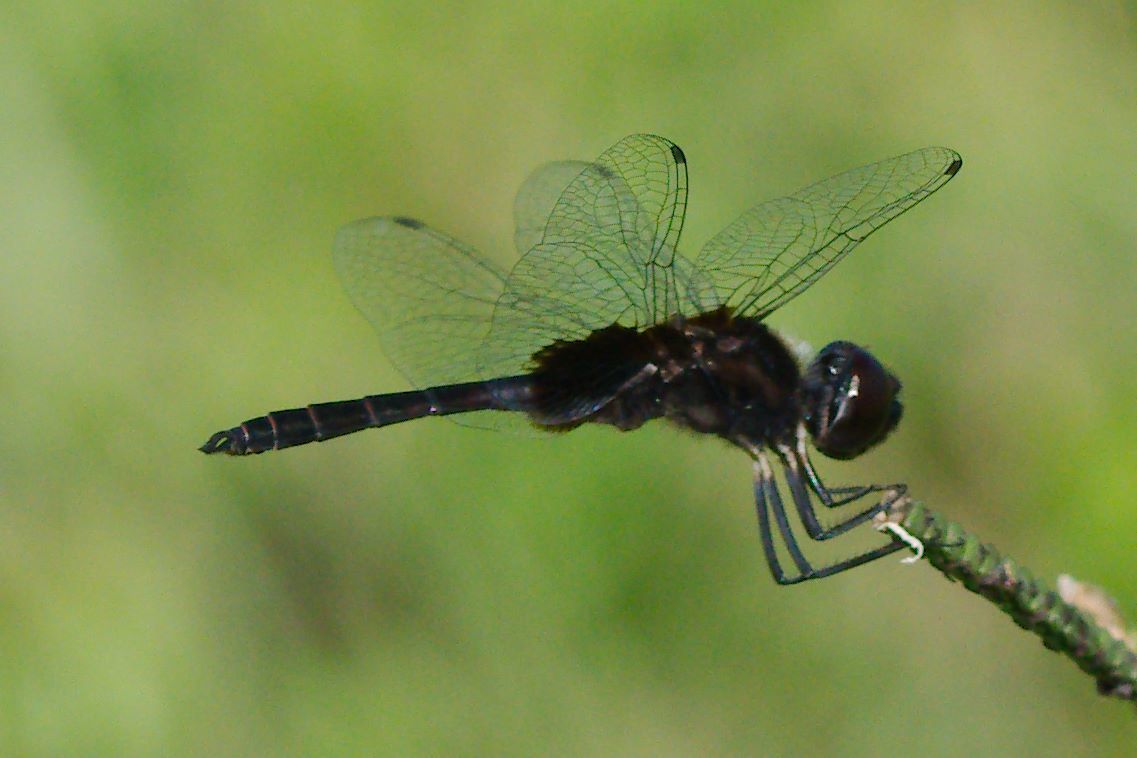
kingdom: Animalia
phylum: Arthropoda
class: Insecta
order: Odonata
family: Libellulidae
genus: Macrodiplax
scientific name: Macrodiplax balteata
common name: Marl pennant
